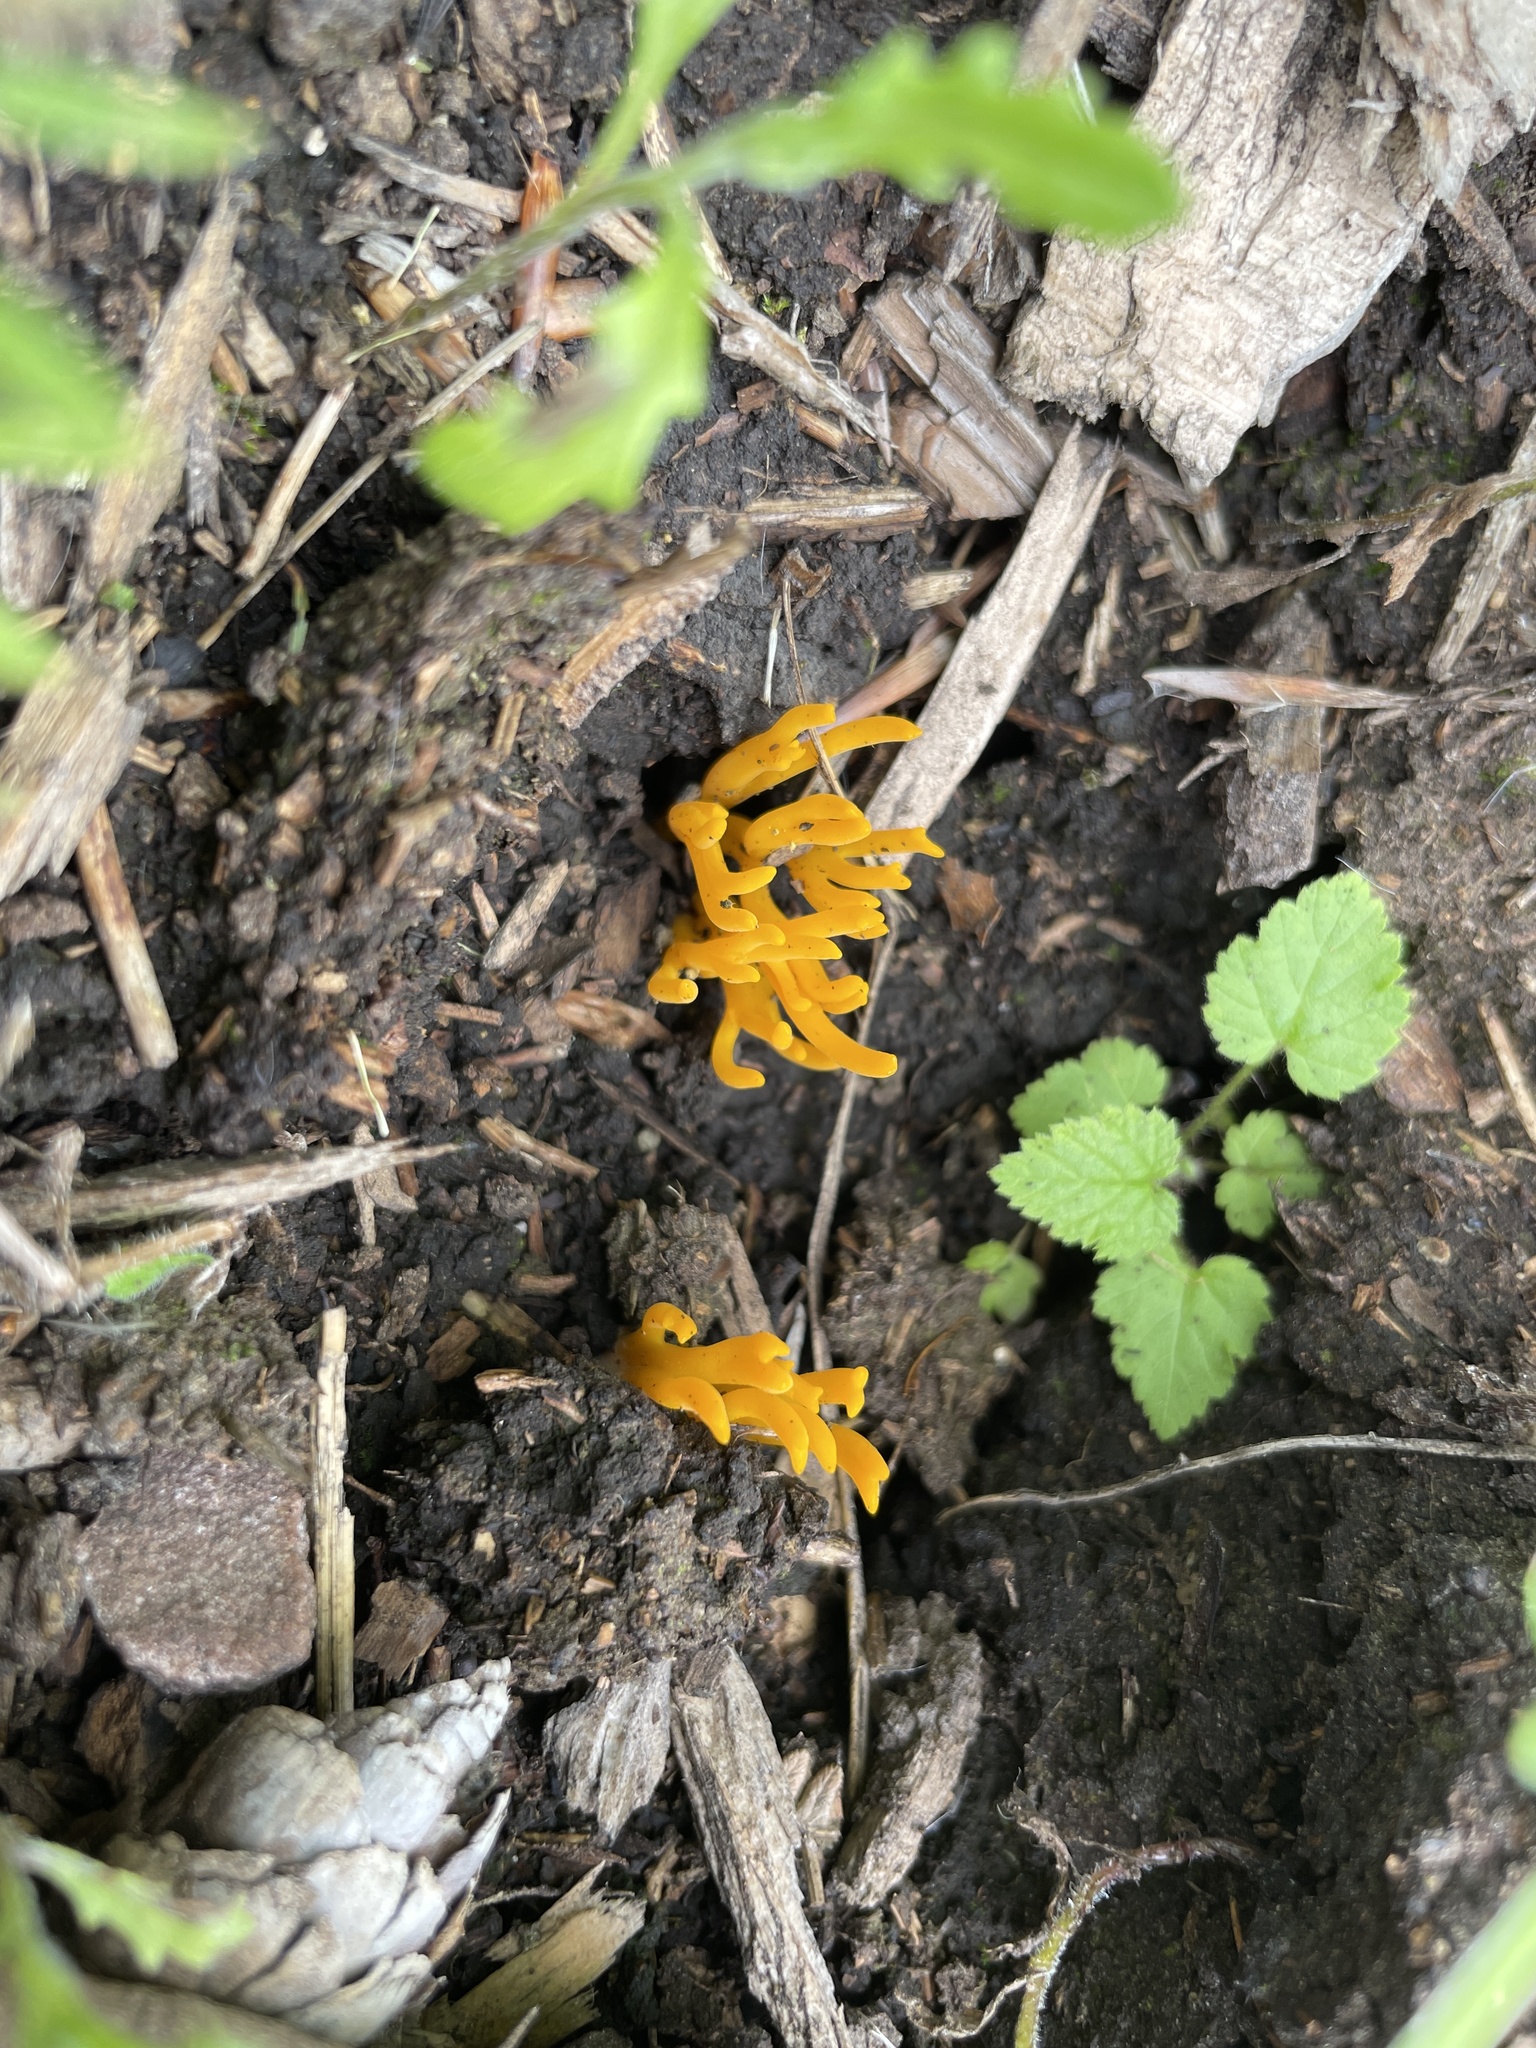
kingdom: Fungi
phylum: Basidiomycota
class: Dacrymycetes
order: Dacrymycetales
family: Dacrymycetaceae
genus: Calocera
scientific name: Calocera viscosa
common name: Yellow stagshorn
